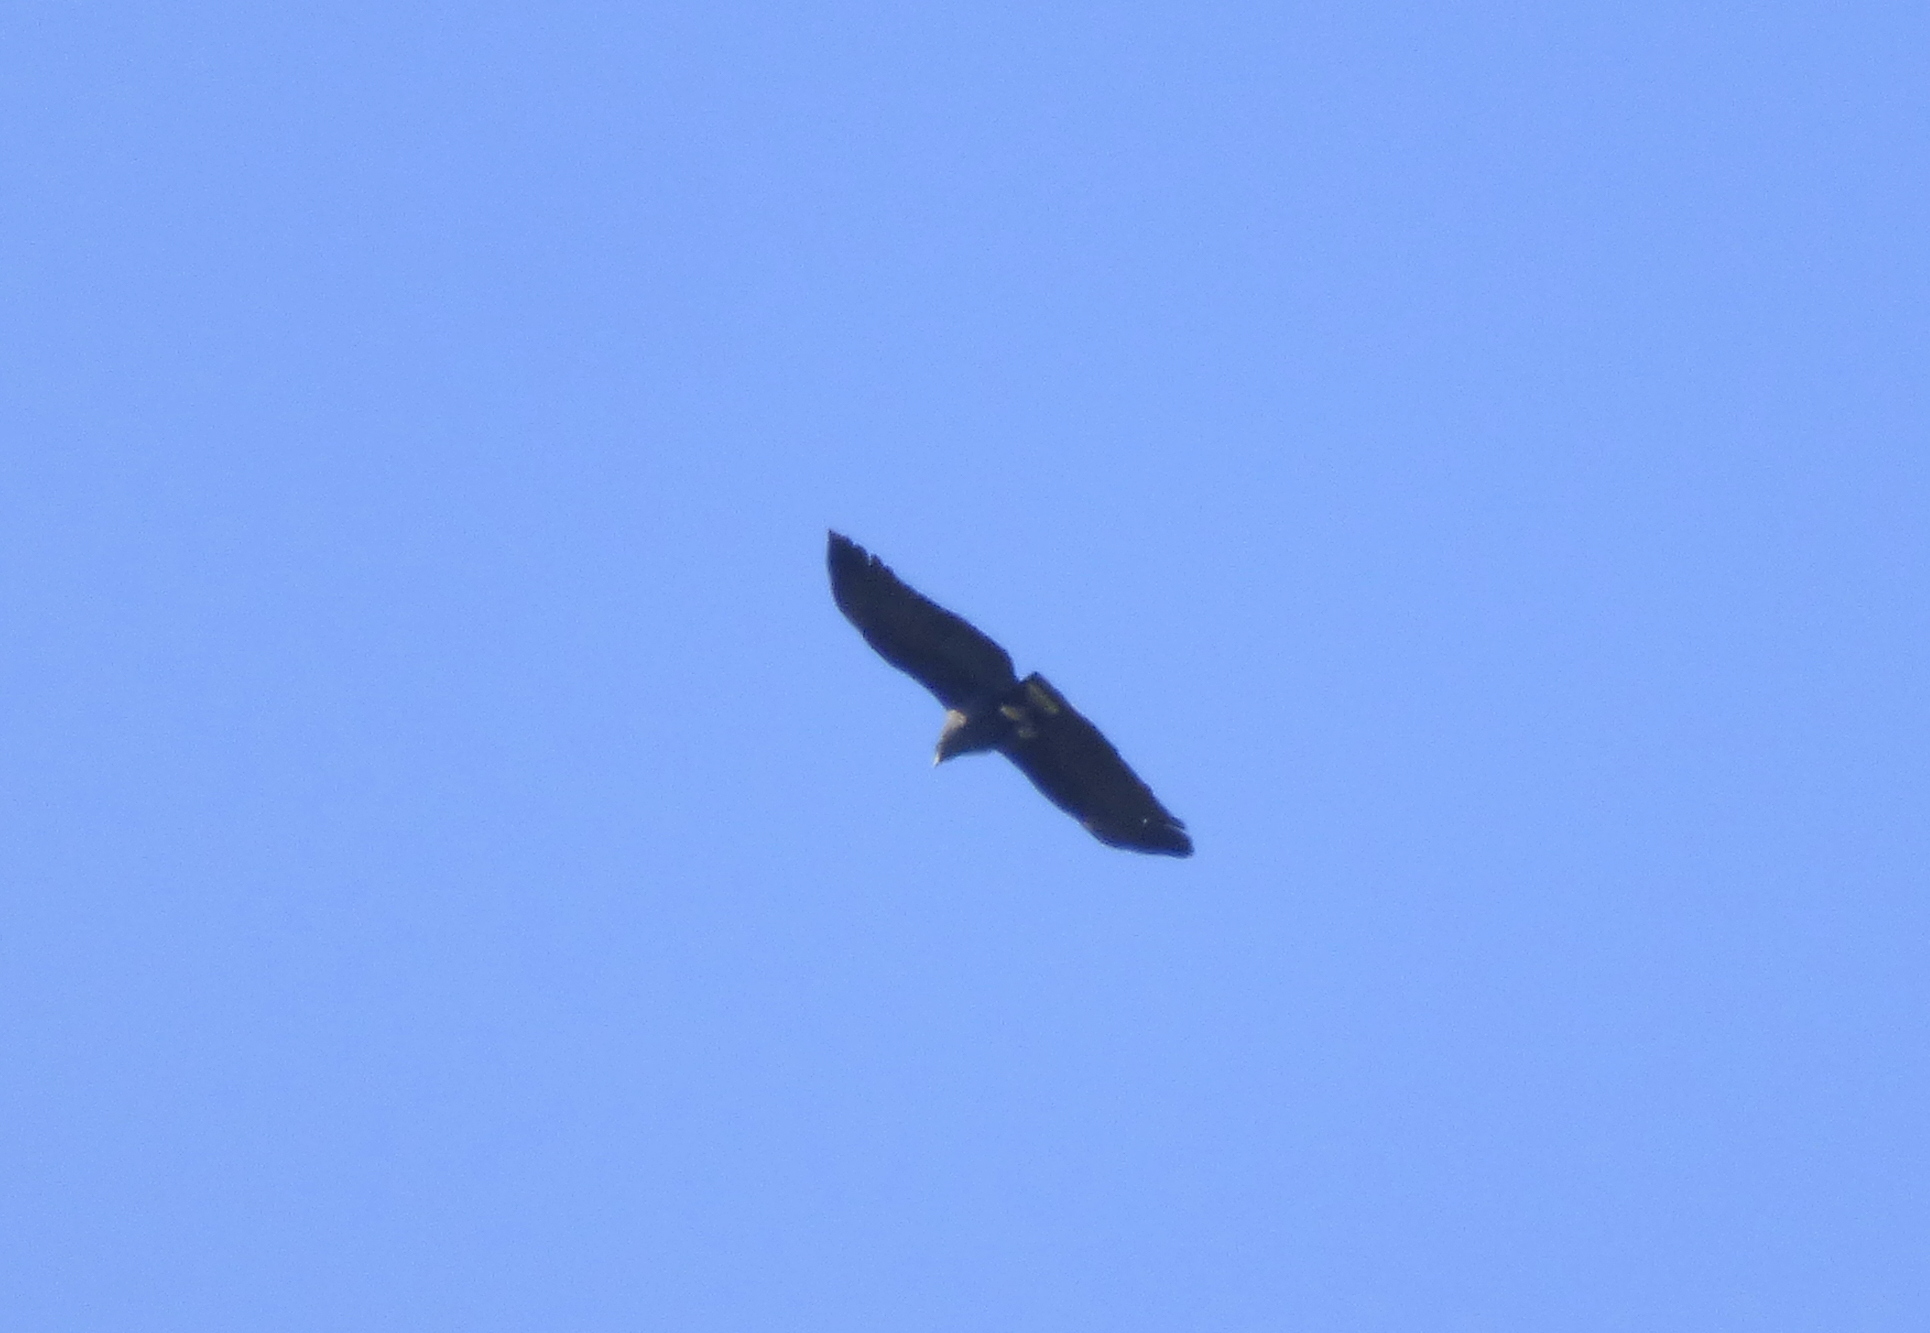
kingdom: Animalia
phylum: Chordata
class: Aves
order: Accipitriformes
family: Accipitridae
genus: Buteogallus
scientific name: Buteogallus urubitinga
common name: Great black hawk
